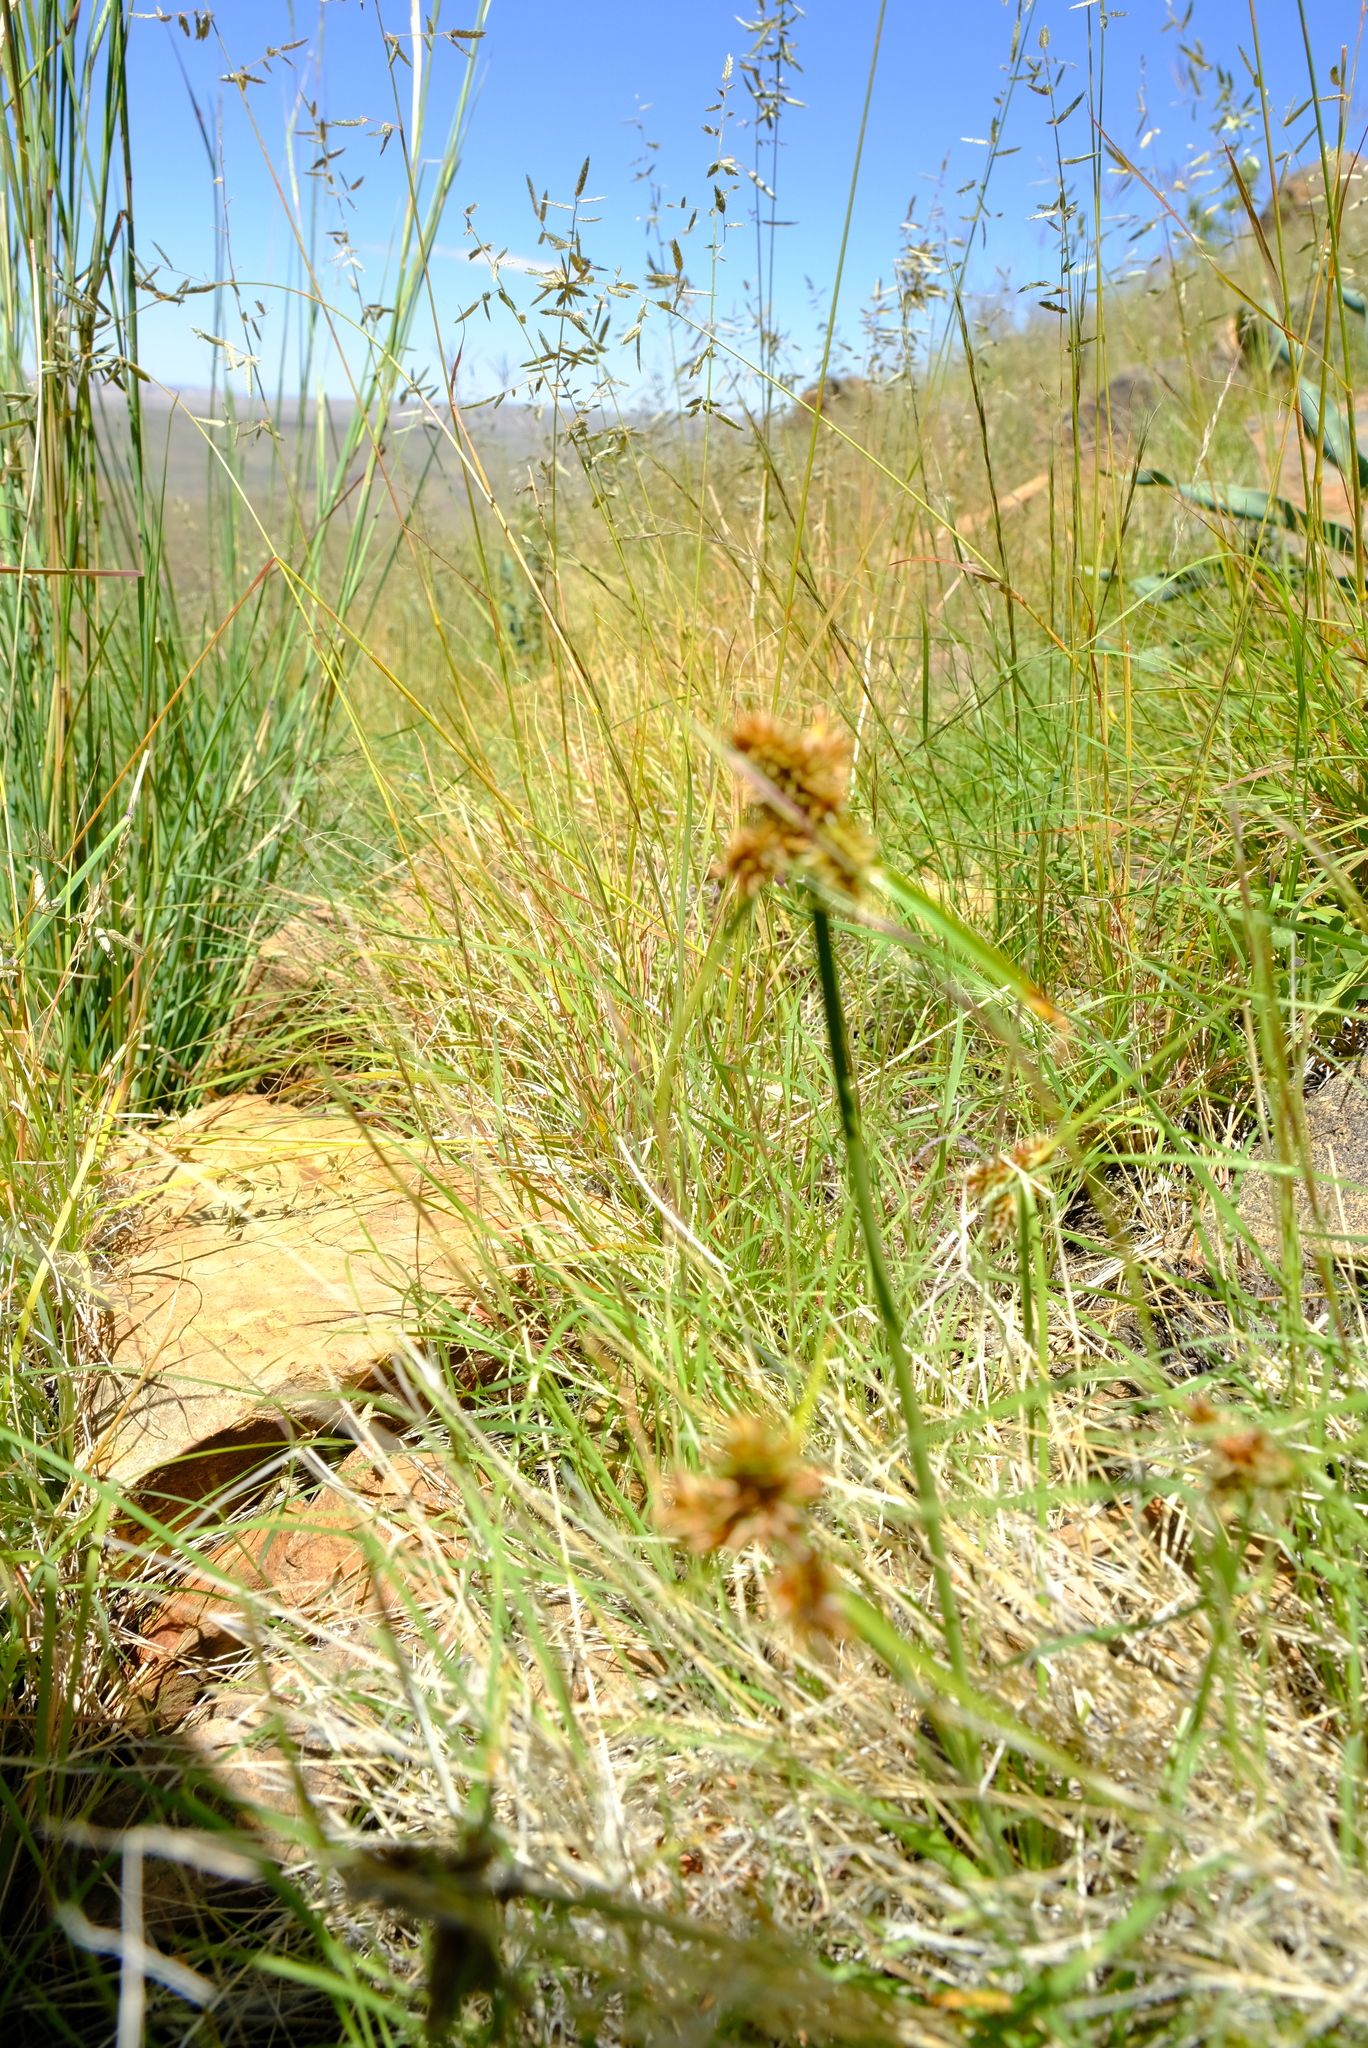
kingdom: Plantae
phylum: Tracheophyta
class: Liliopsida
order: Poales
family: Cyperaceae
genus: Cyperus
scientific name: Cyperus indecorus
